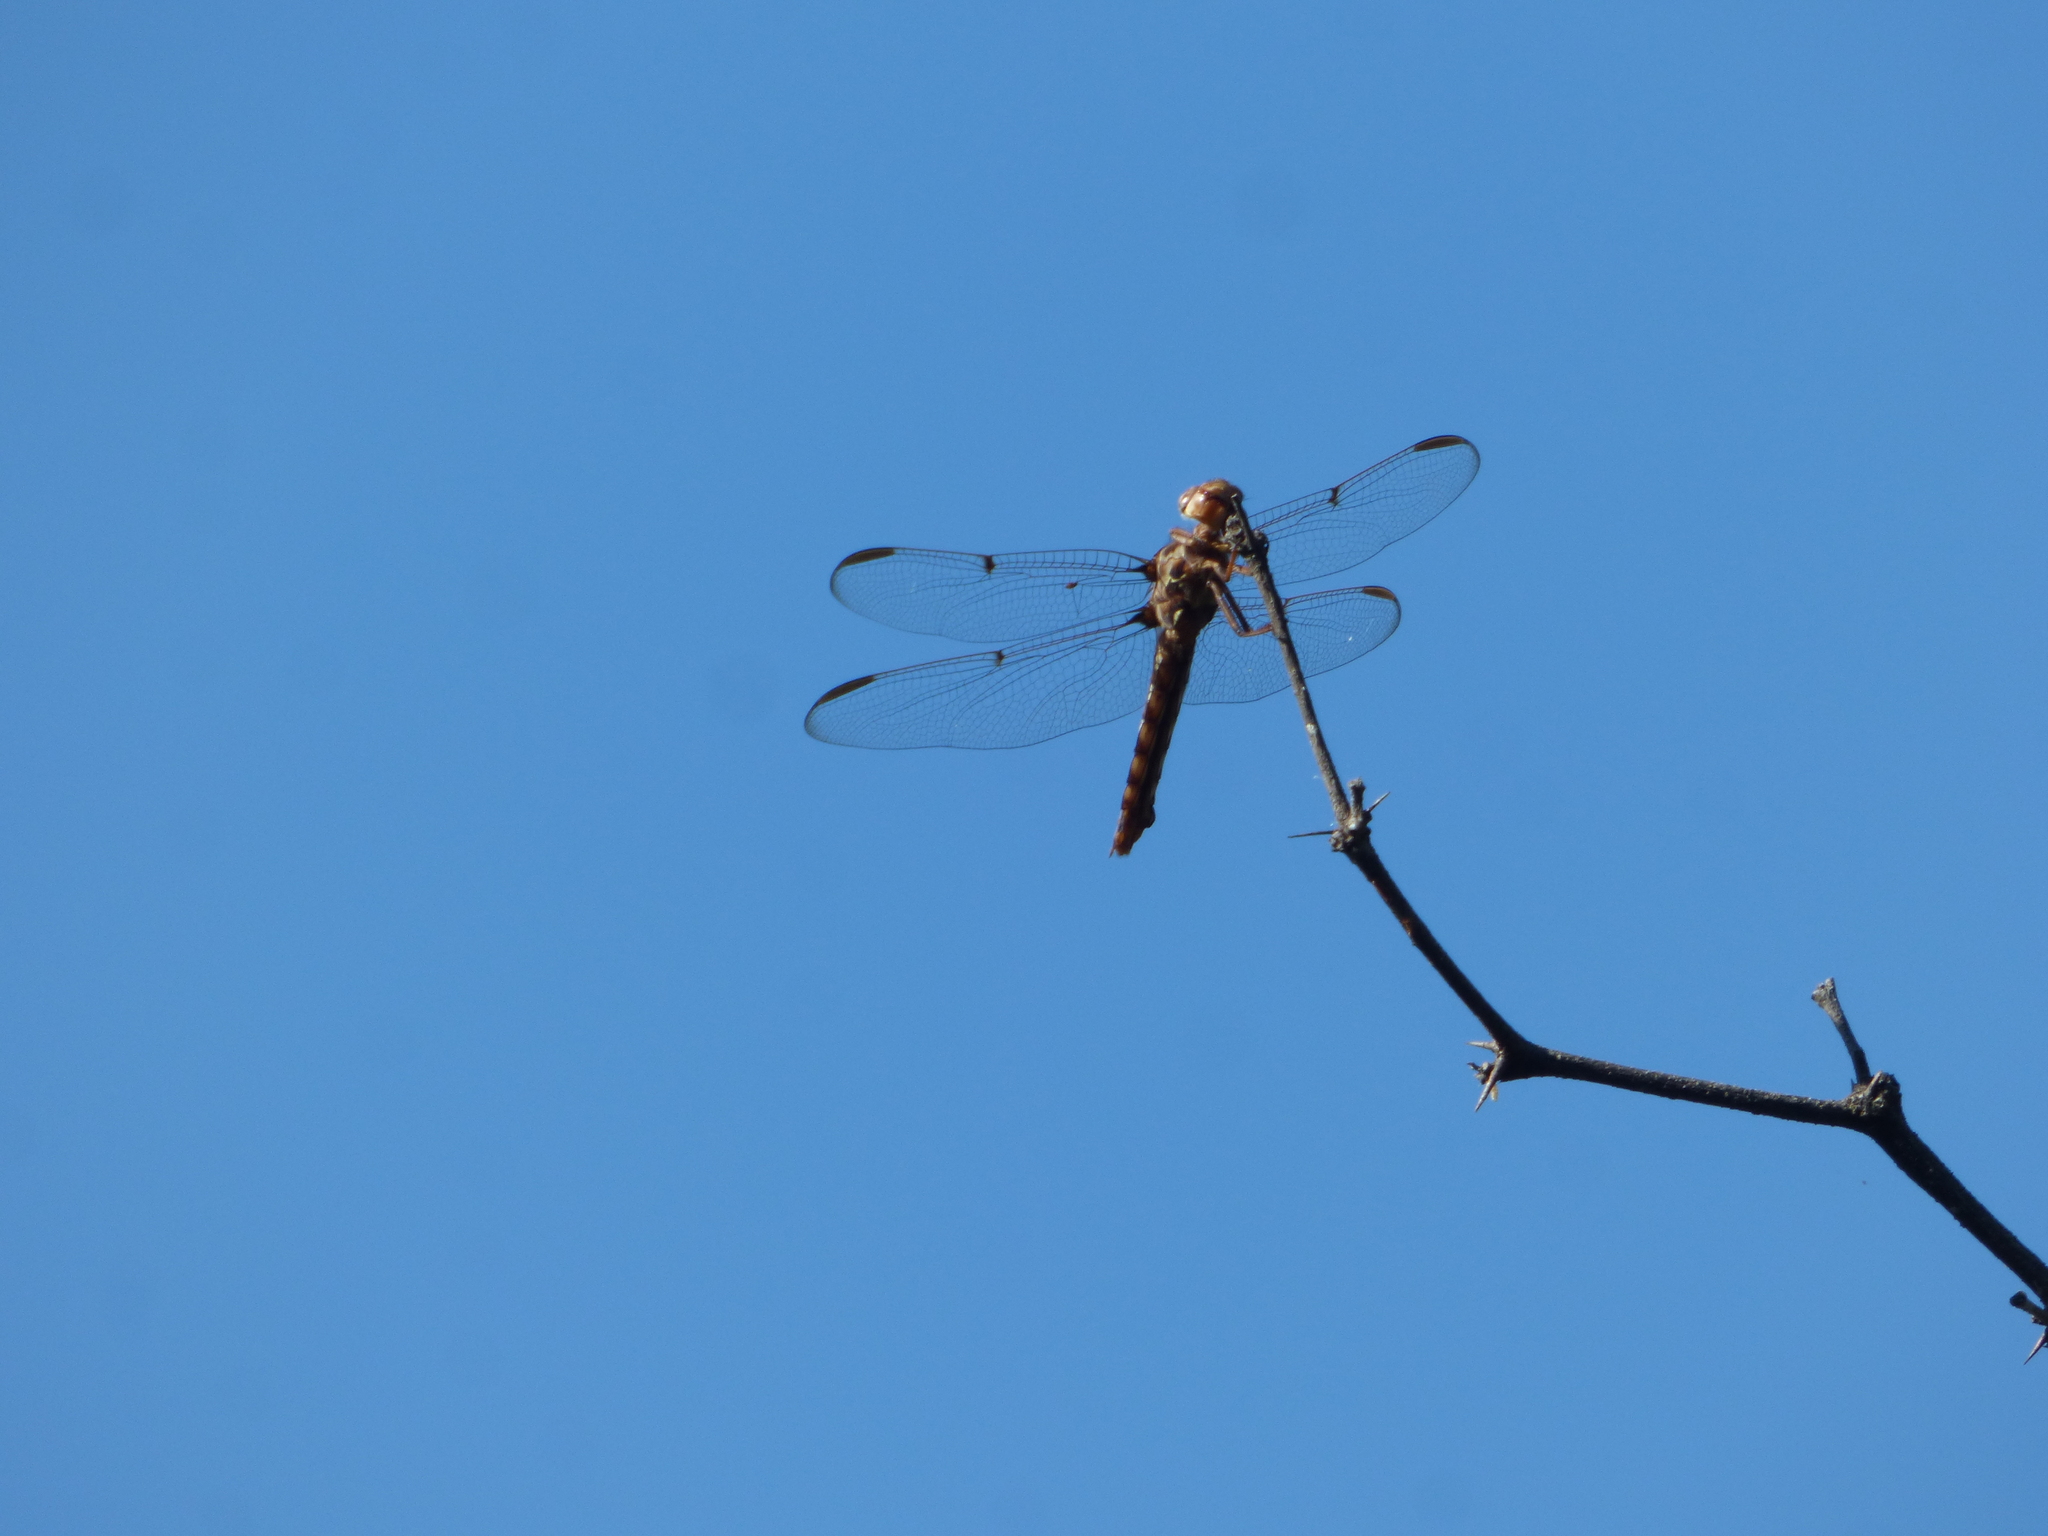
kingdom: Animalia
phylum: Arthropoda
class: Insecta
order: Odonata
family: Libellulidae
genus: Orthemis
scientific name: Orthemis nodiplaga
